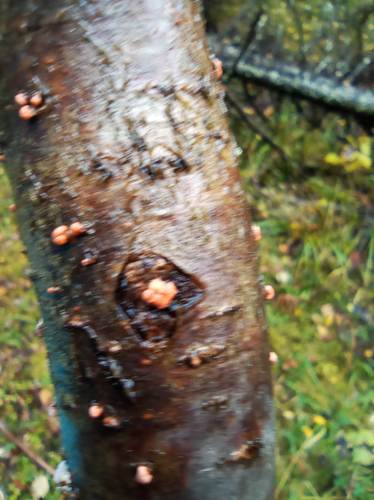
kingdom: Fungi
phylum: Ascomycota
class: Sordariomycetes
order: Hypocreales
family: Nectriaceae
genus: Nectria
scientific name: Nectria cinnabarina
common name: Coral spot
